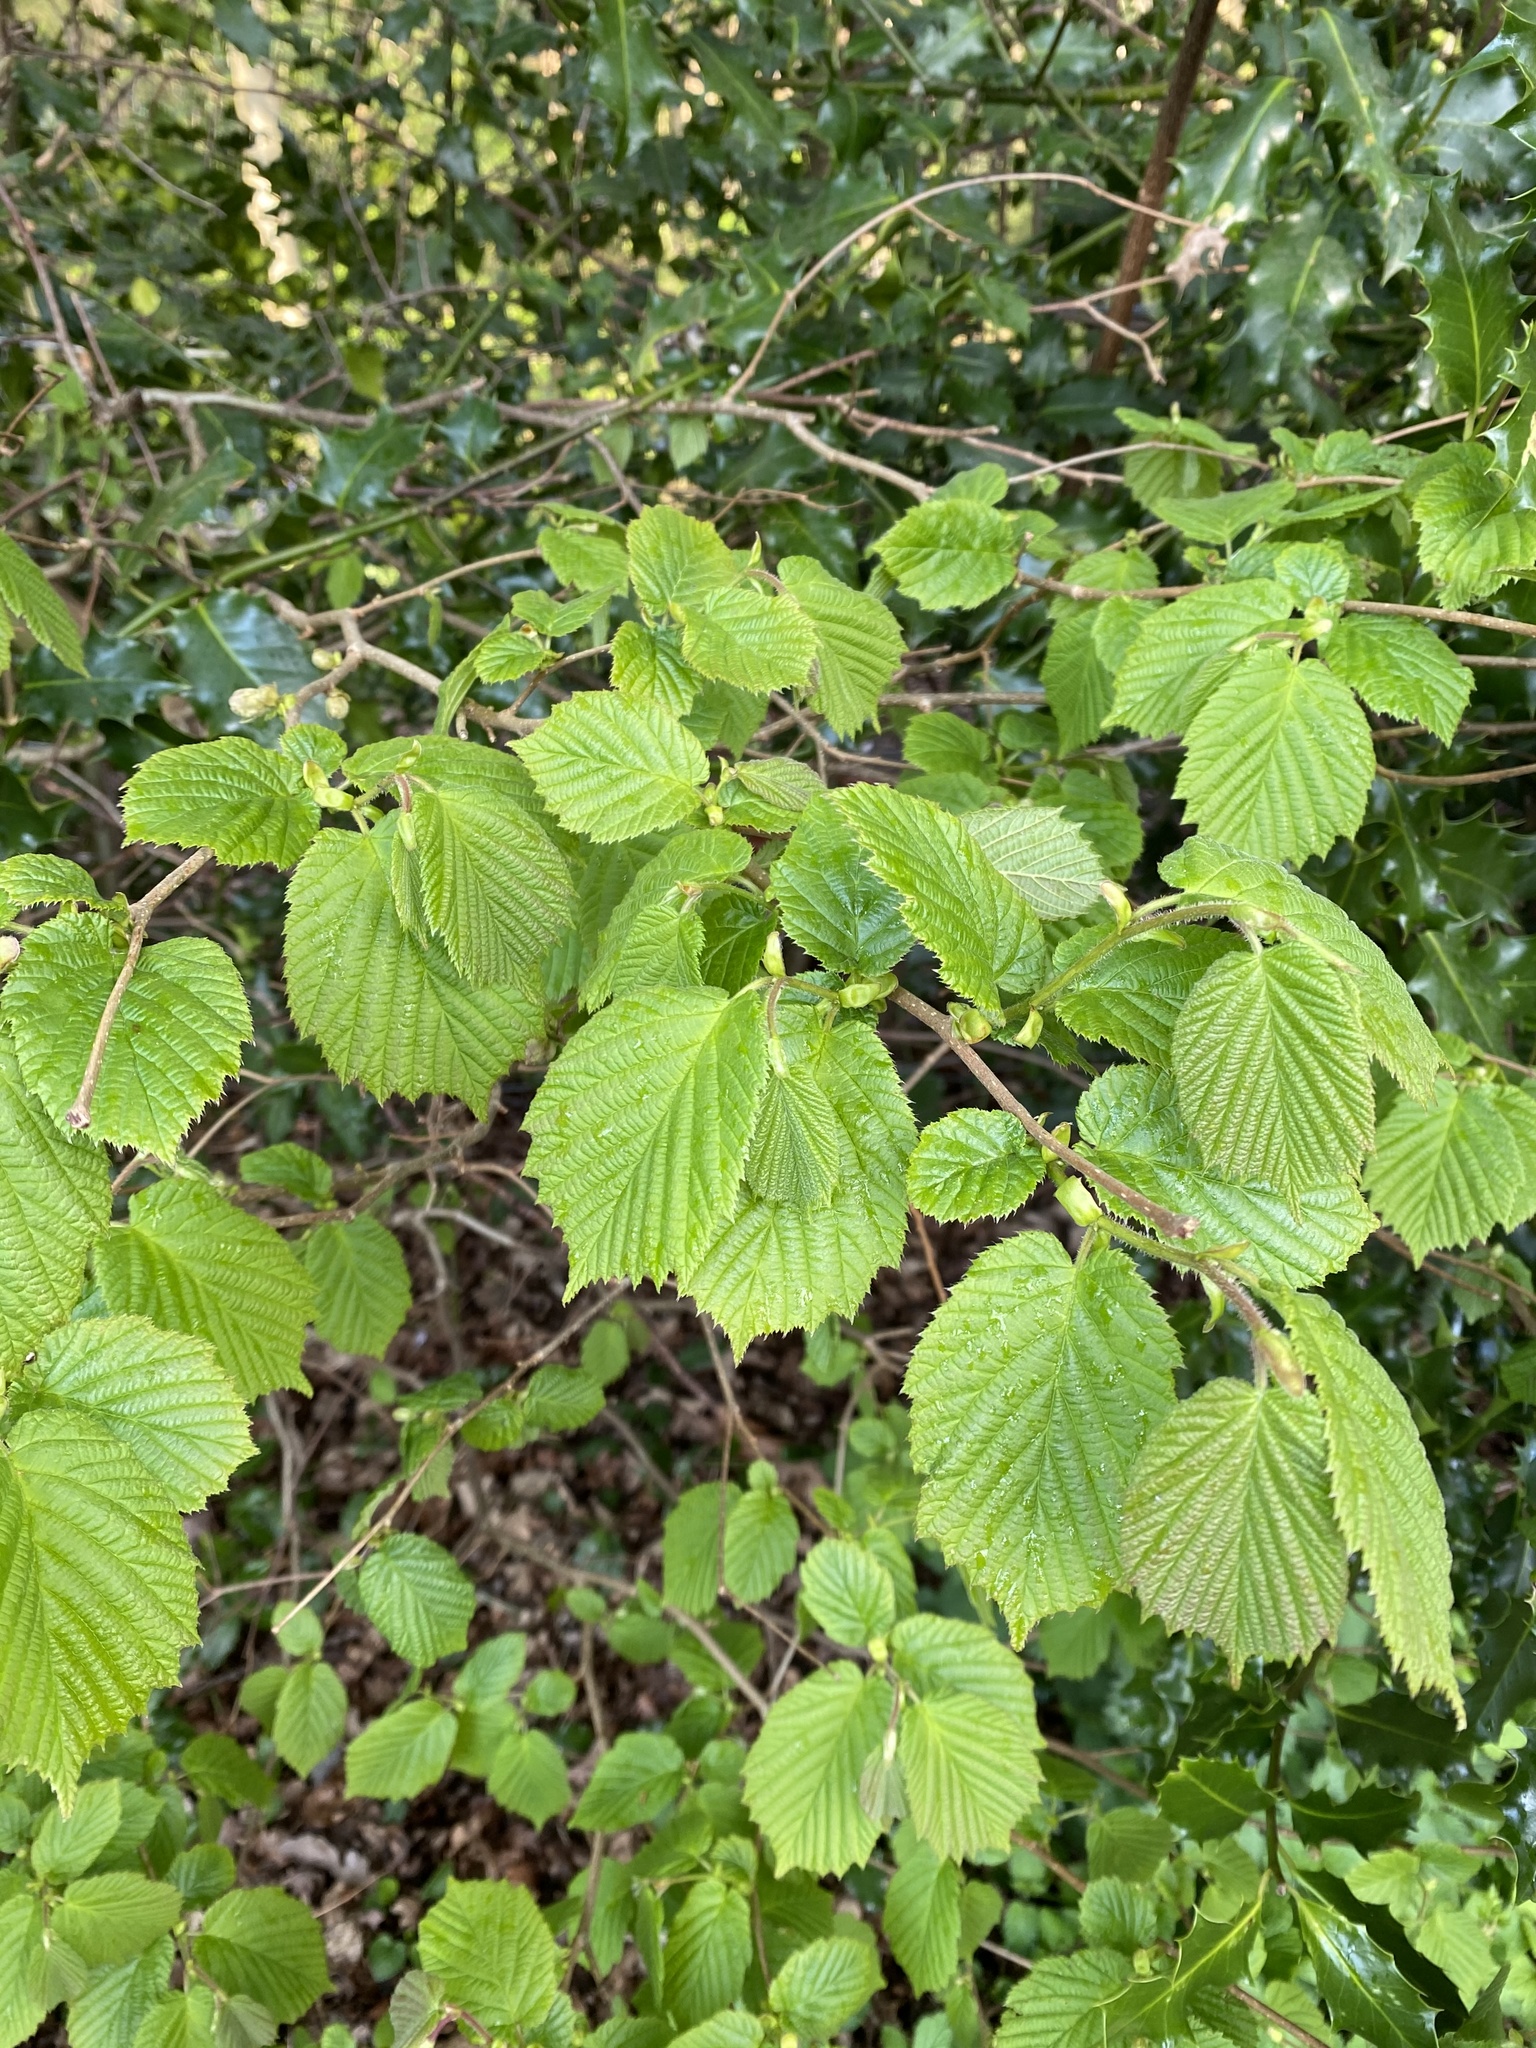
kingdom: Plantae
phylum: Tracheophyta
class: Magnoliopsida
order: Fagales
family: Betulaceae
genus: Corylus
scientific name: Corylus avellana
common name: European hazel
